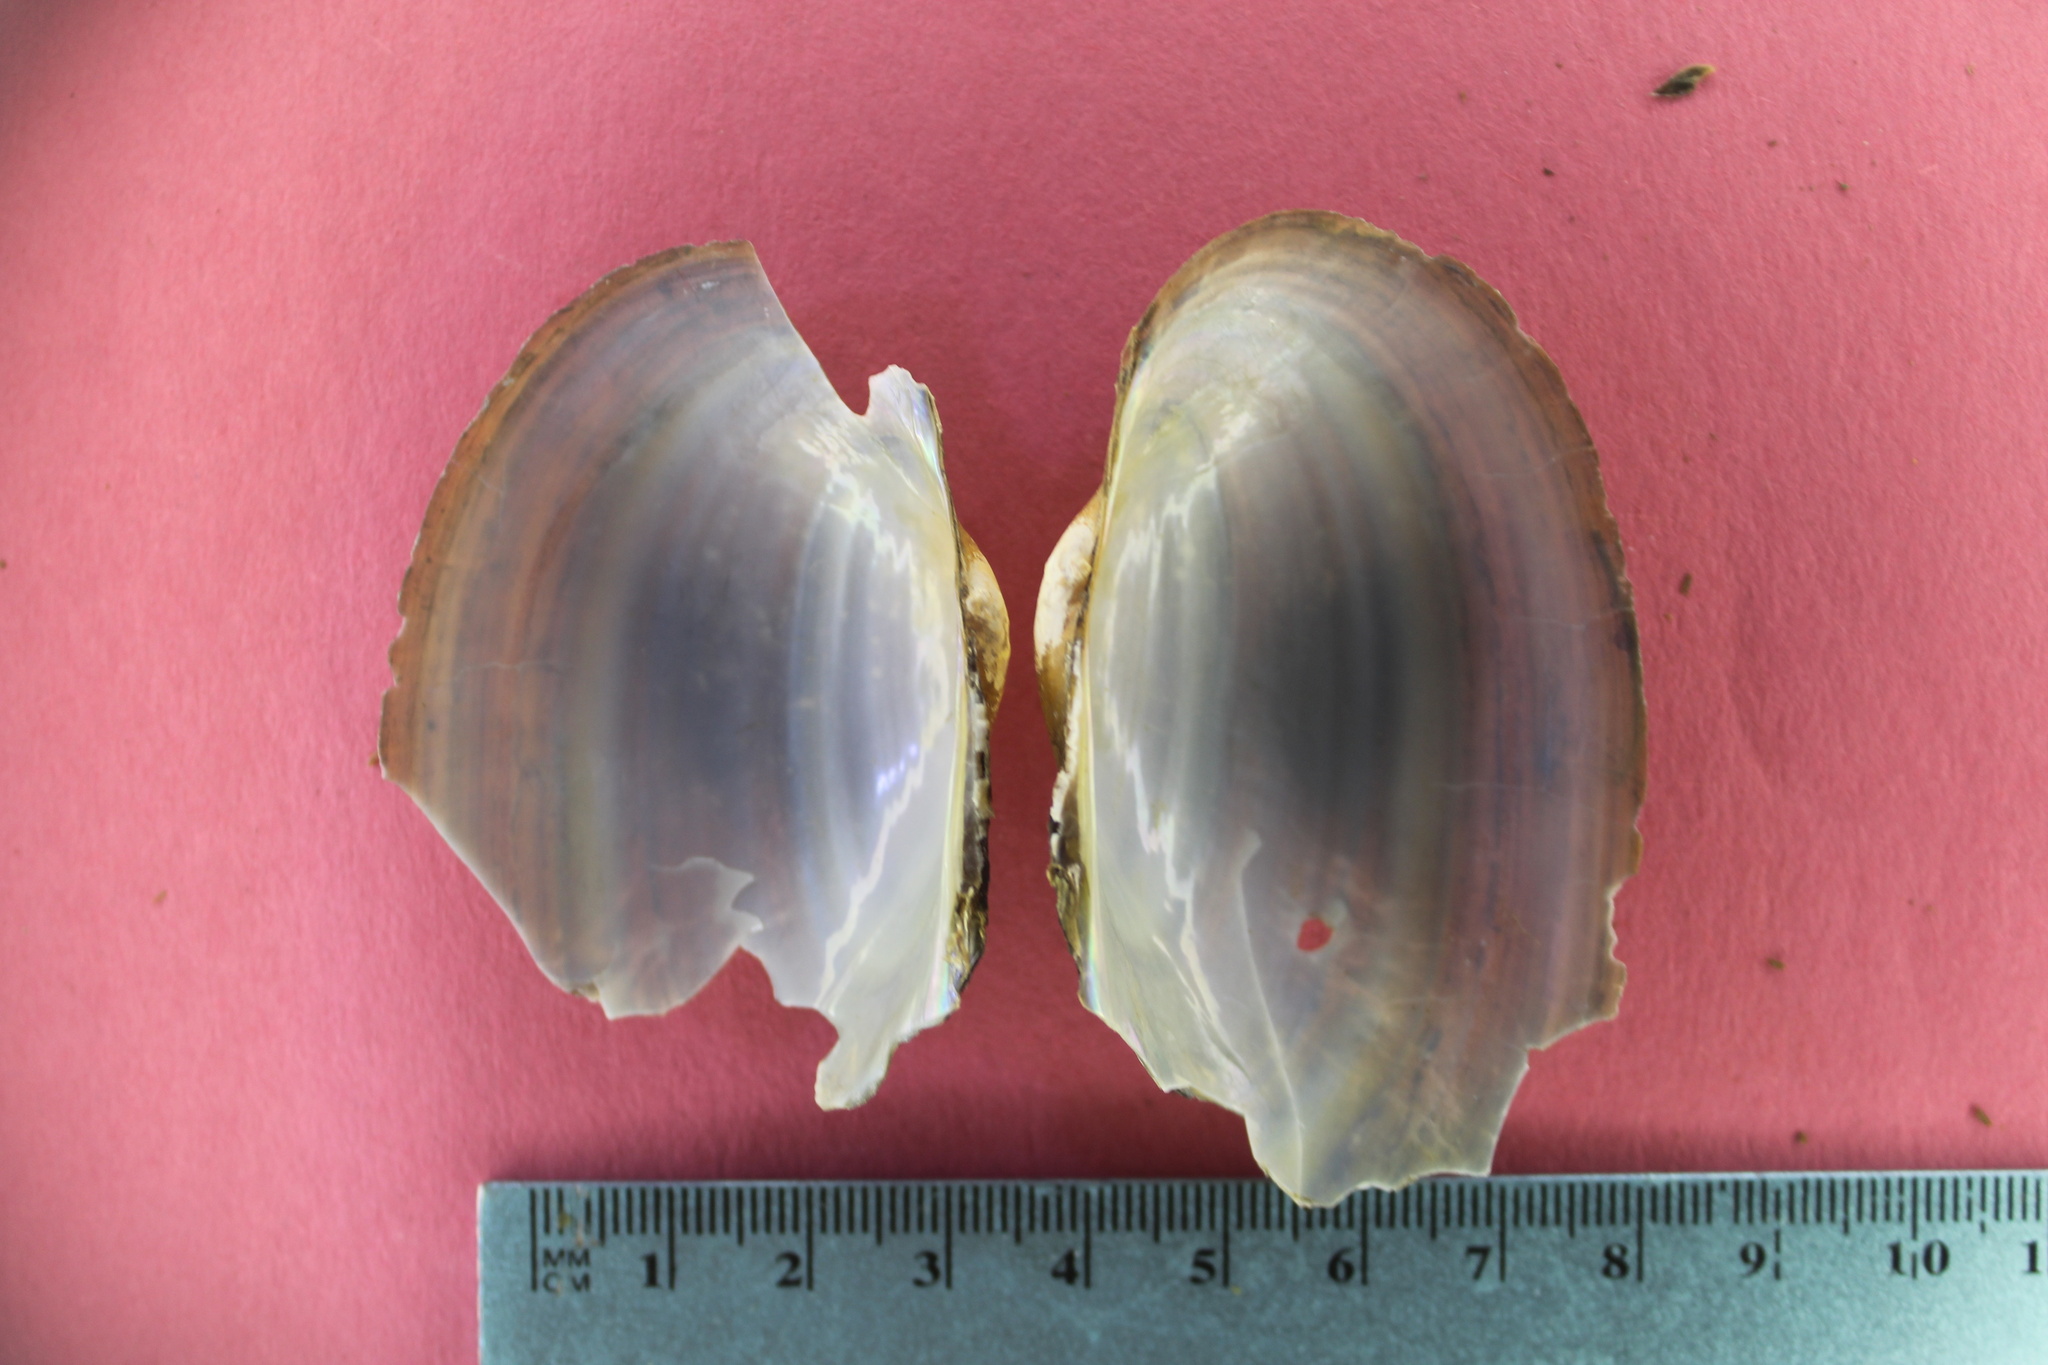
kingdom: Animalia
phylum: Mollusca
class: Bivalvia
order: Unionida
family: Unionidae
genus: Pyganodon
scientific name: Pyganodon grandis
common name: Giant floater
